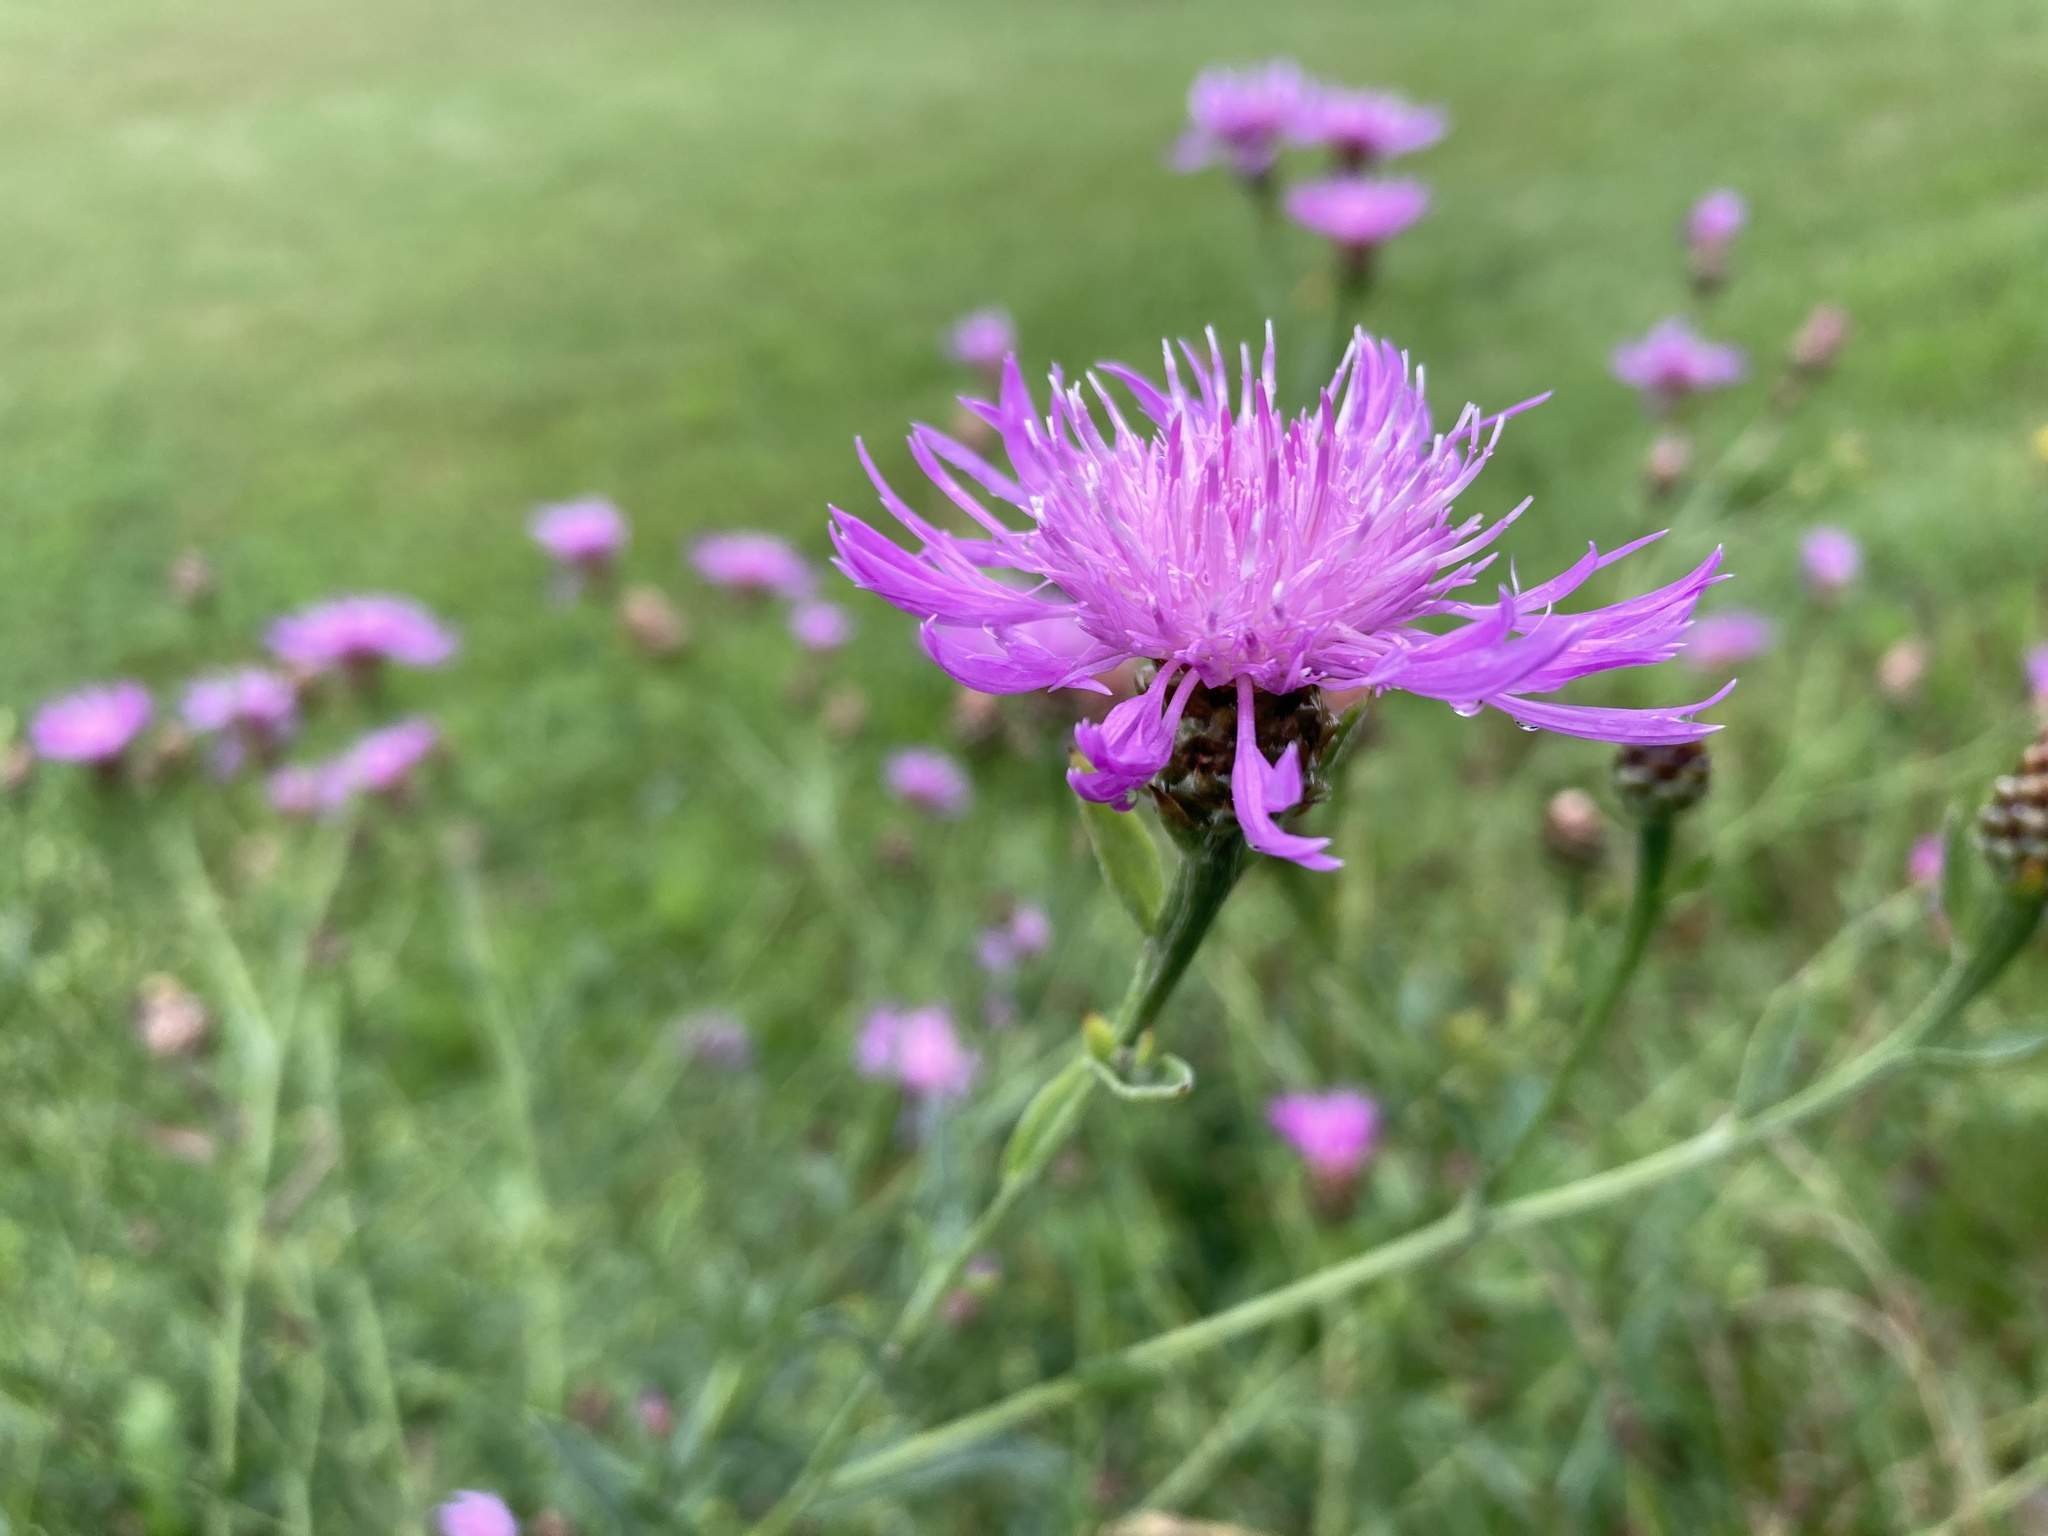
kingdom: Plantae
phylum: Tracheophyta
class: Magnoliopsida
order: Asterales
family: Asteraceae
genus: Centaurea
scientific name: Centaurea jacea
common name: Brown knapweed
